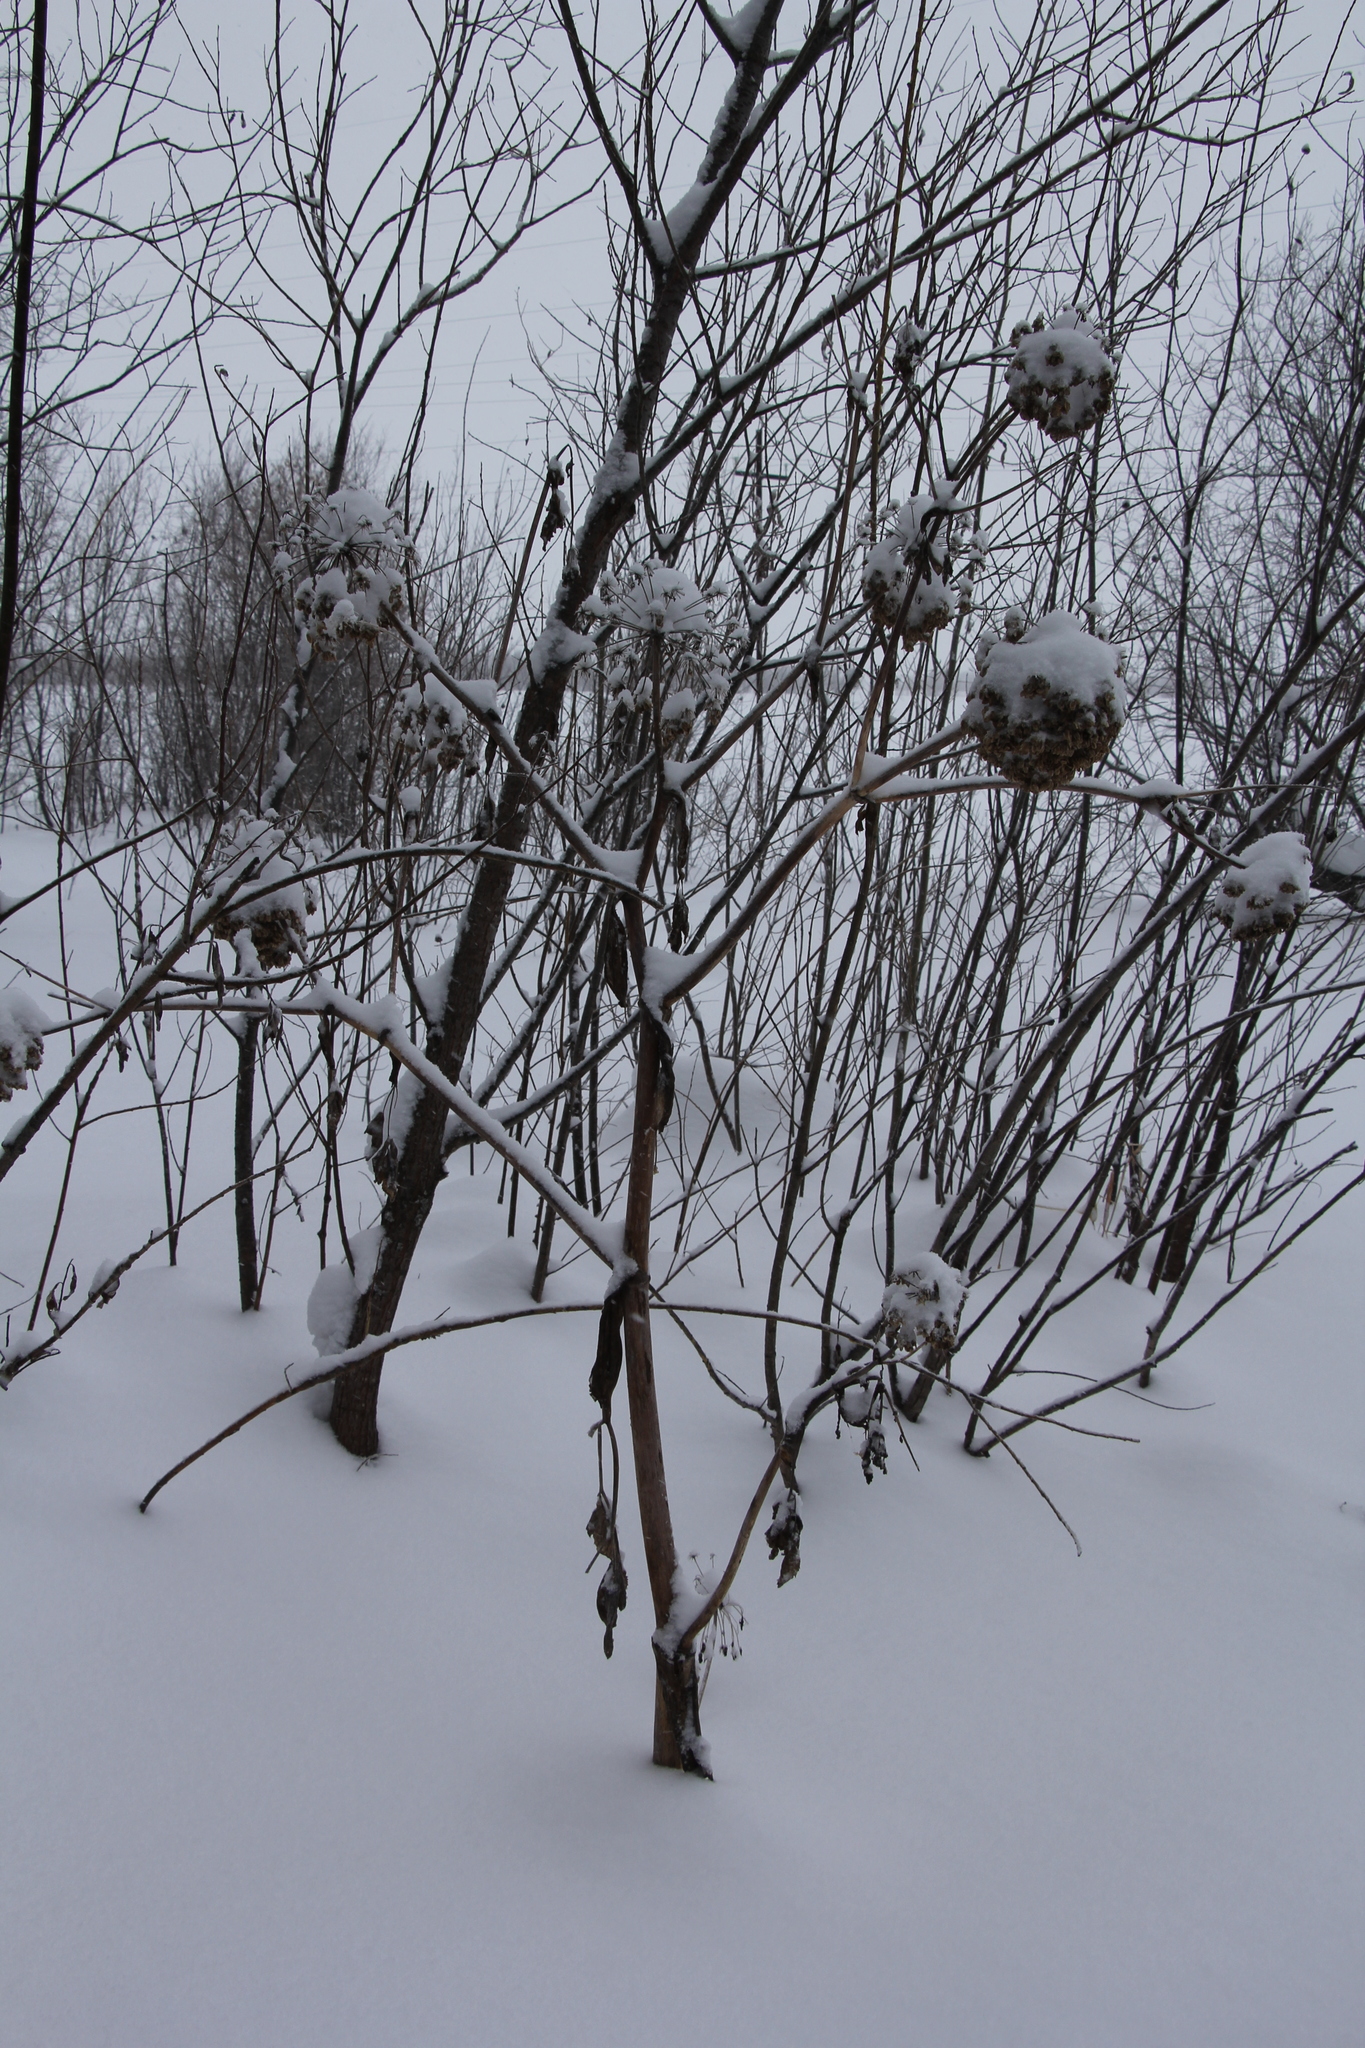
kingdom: Plantae
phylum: Tracheophyta
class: Magnoliopsida
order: Apiales
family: Apiaceae
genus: Angelica
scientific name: Angelica decurrens
